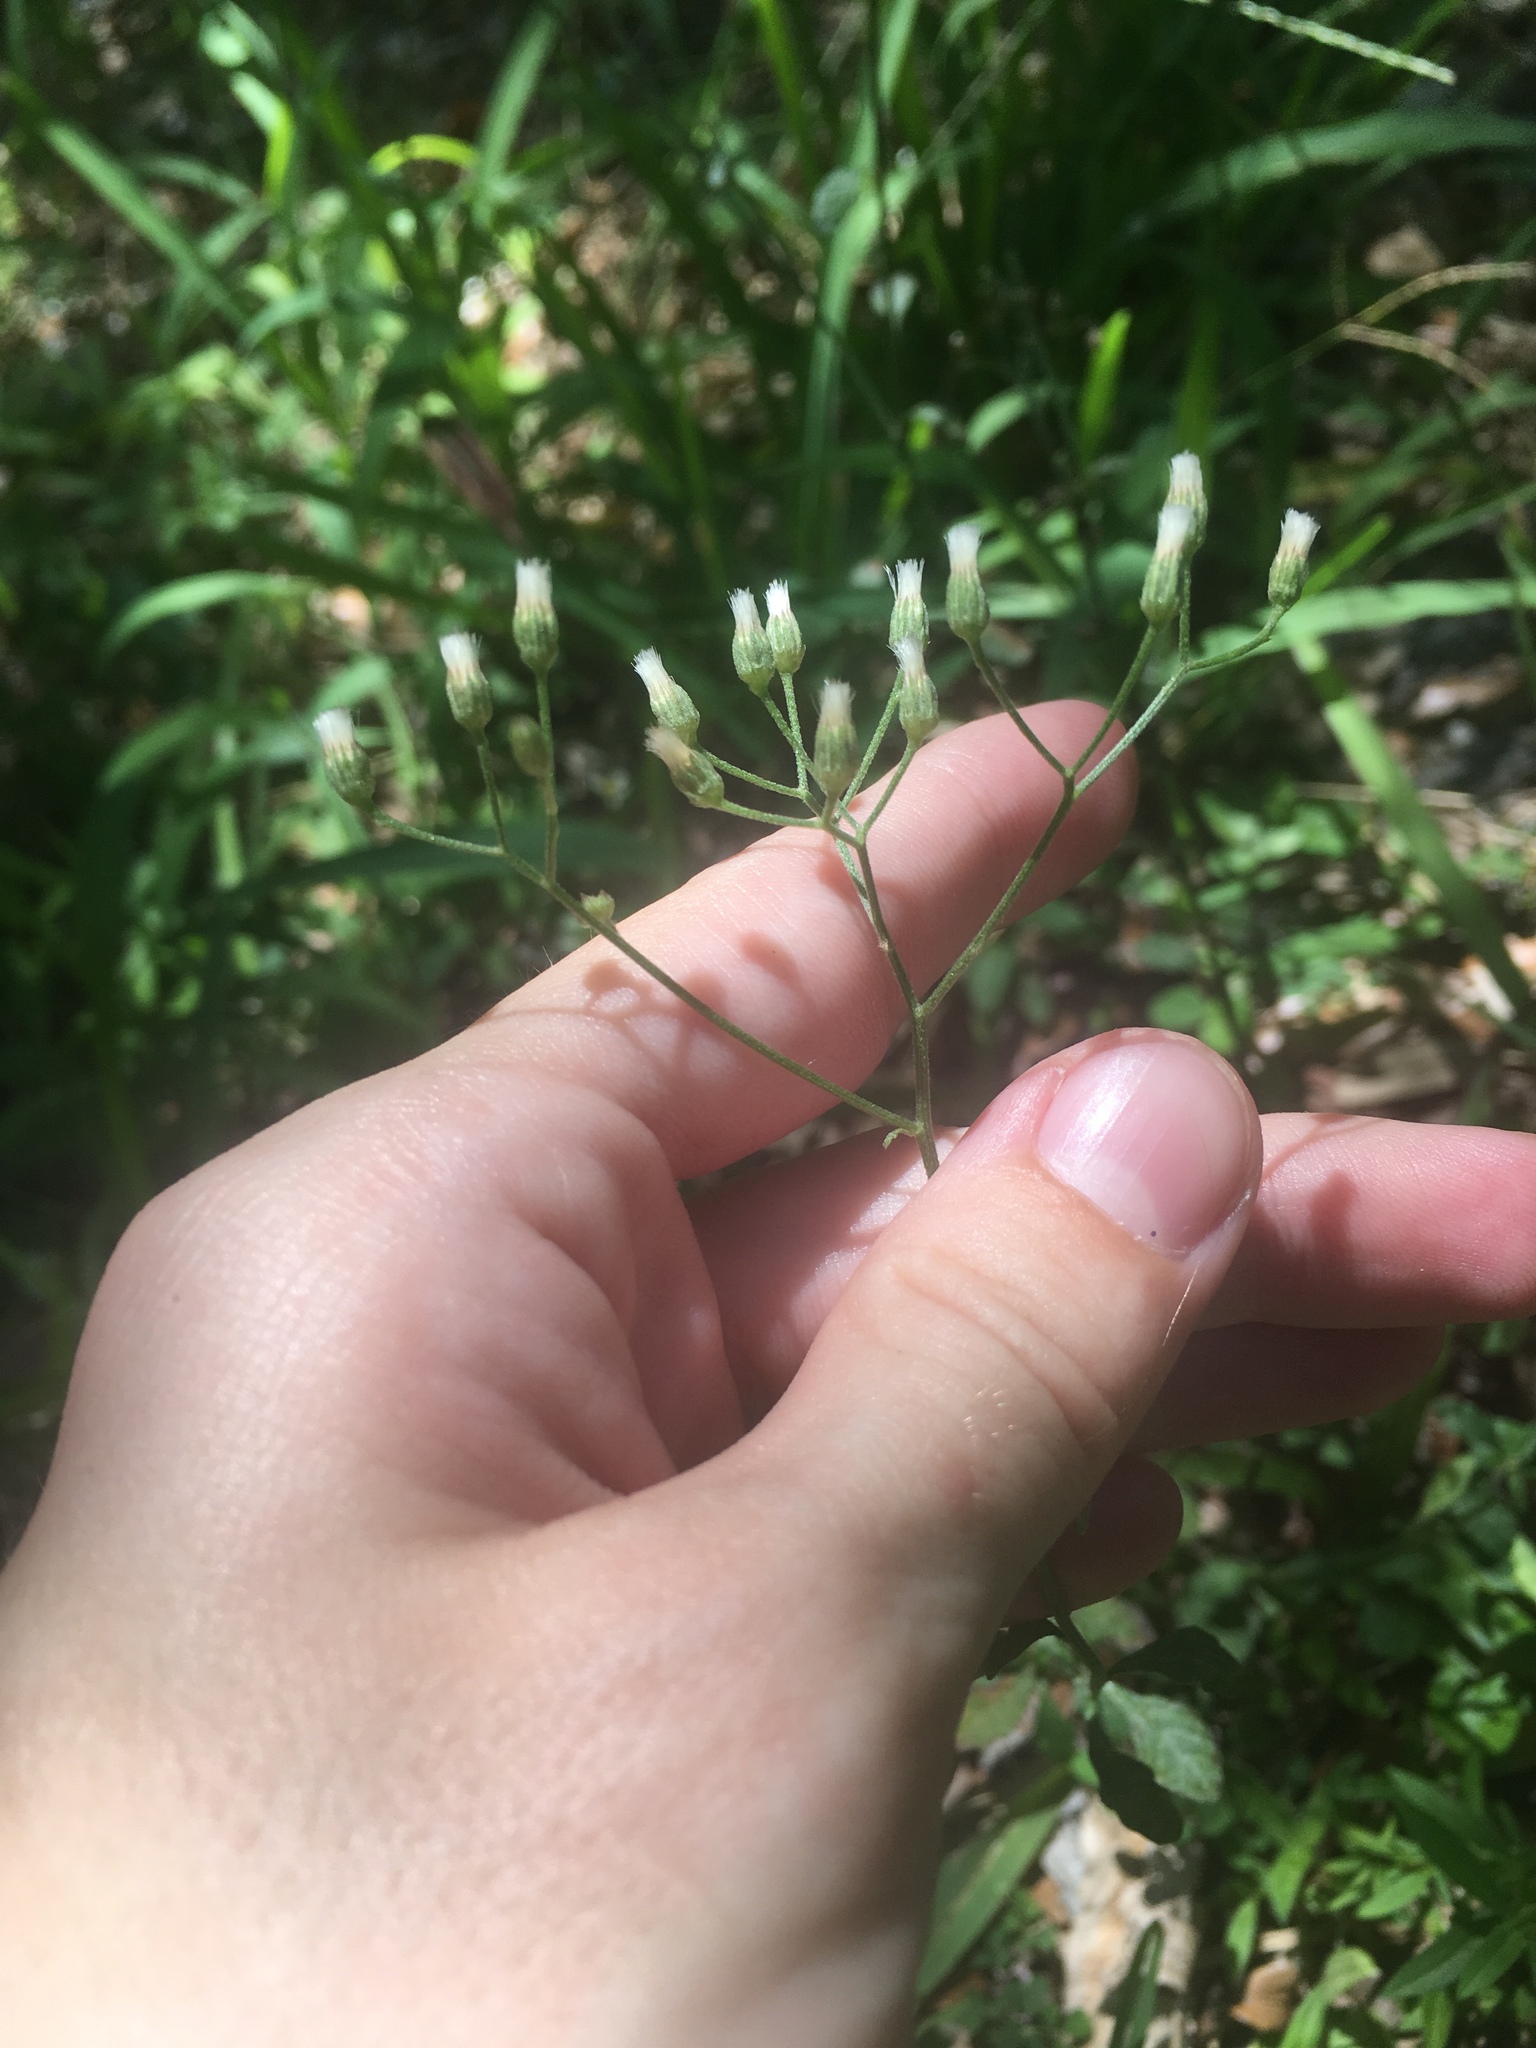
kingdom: Plantae
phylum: Tracheophyta
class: Magnoliopsida
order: Asterales
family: Asteraceae
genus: Cyanthillium
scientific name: Cyanthillium cinereum
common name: Little ironweed
